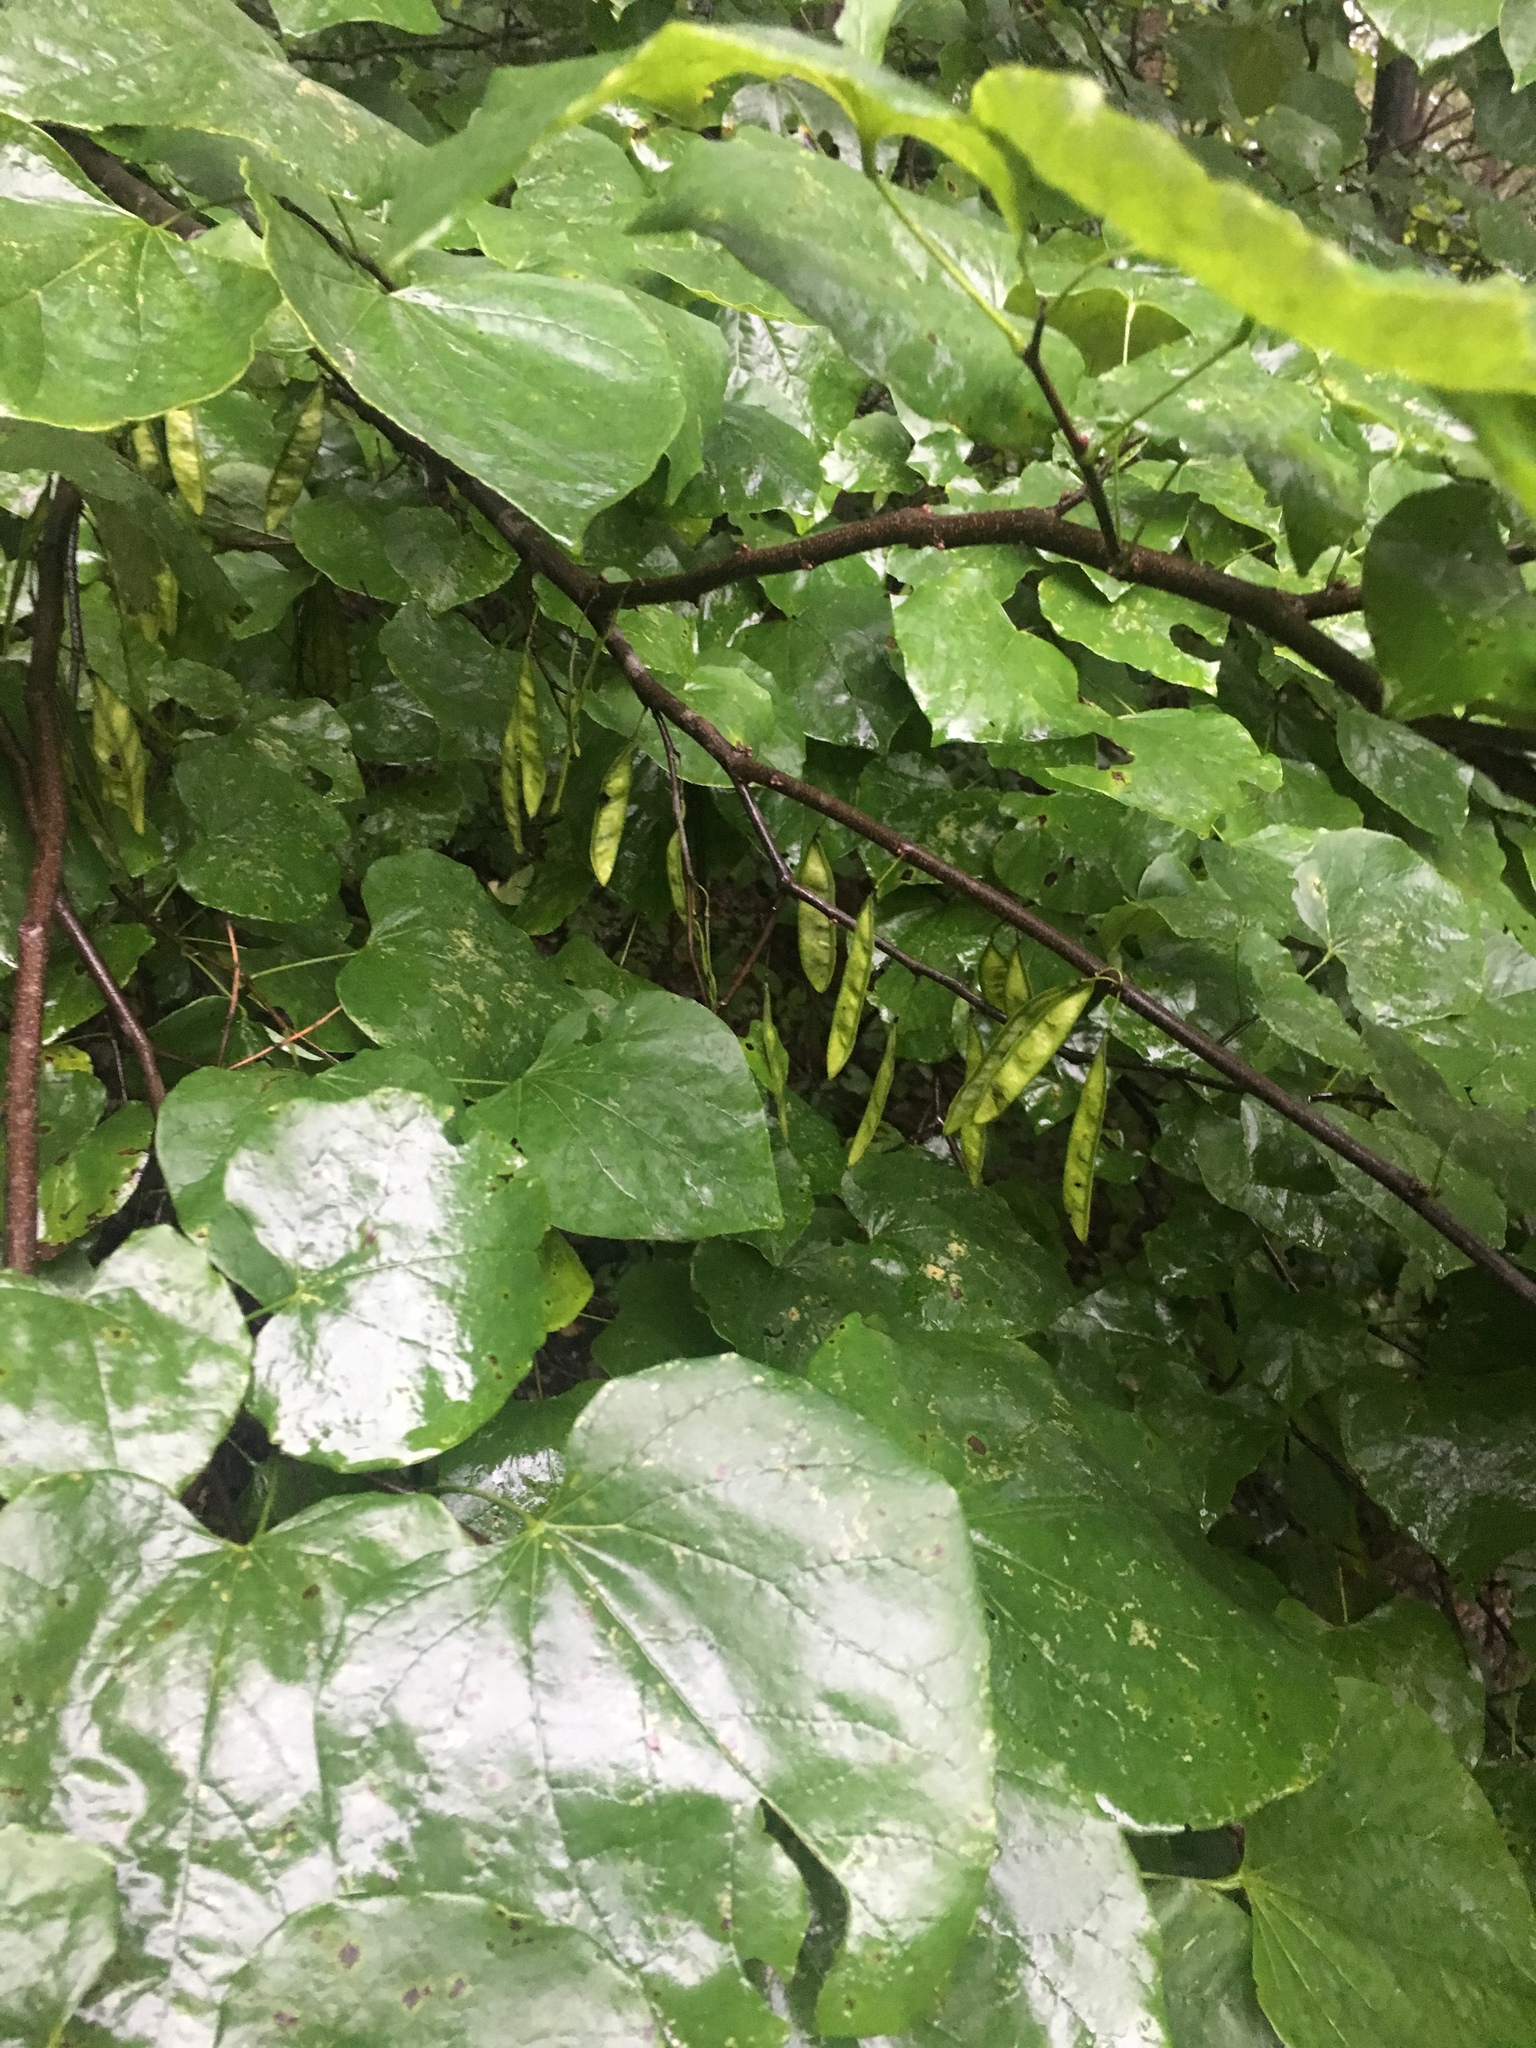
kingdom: Plantae
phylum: Tracheophyta
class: Magnoliopsida
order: Fabales
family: Fabaceae
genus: Cercis
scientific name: Cercis canadensis
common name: Eastern redbud
